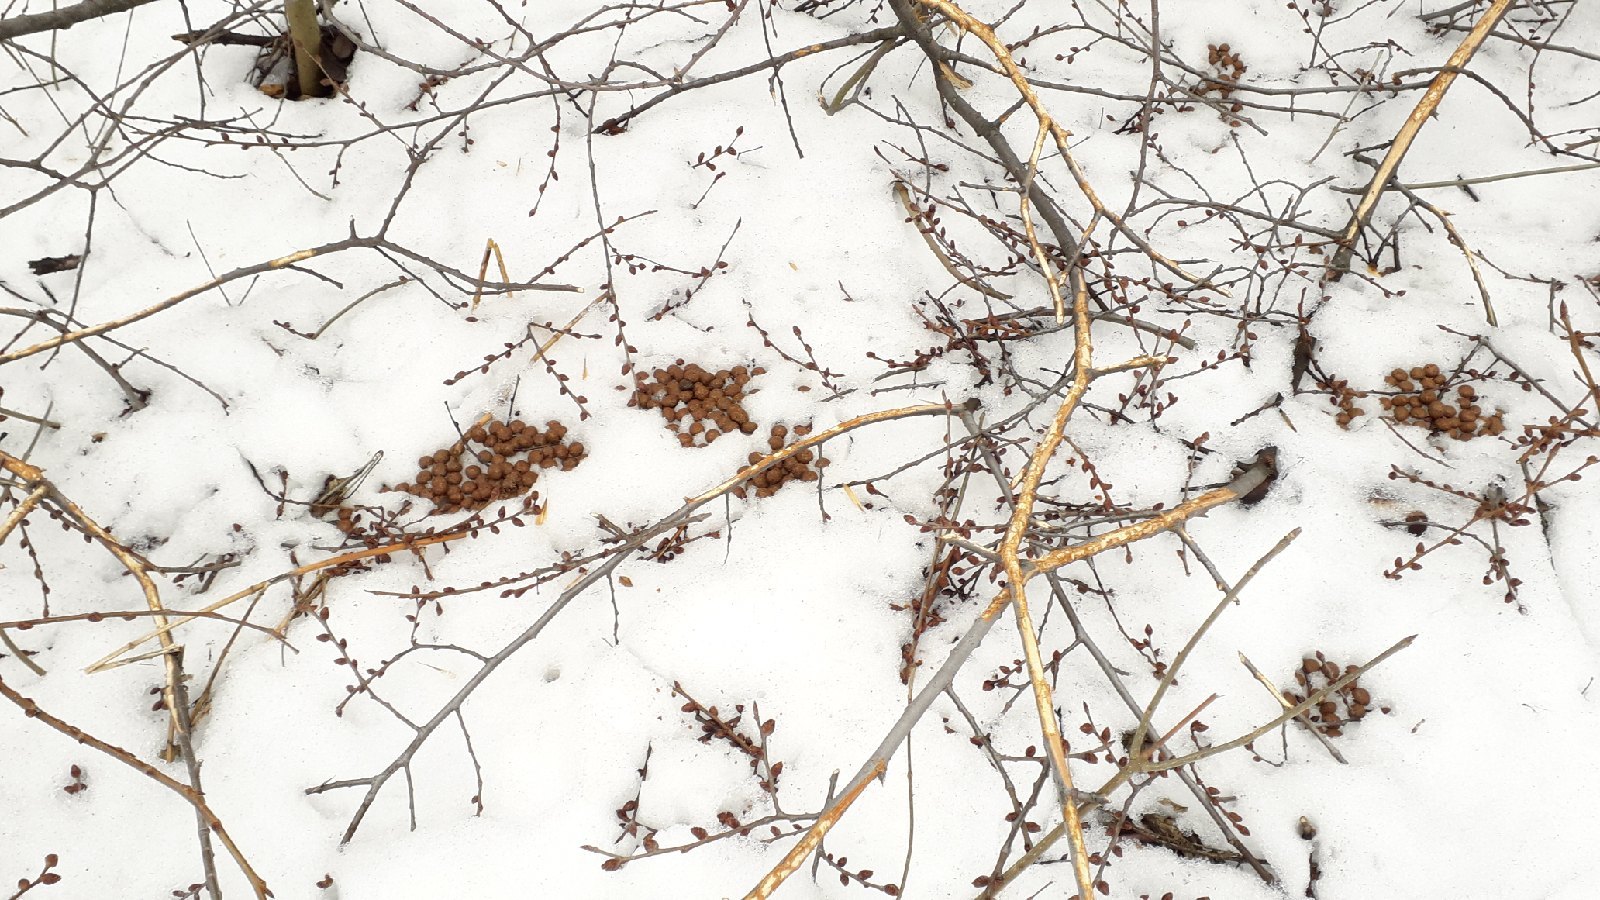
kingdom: Animalia
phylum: Chordata
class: Mammalia
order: Lagomorpha
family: Leporidae
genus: Lepus
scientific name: Lepus europaeus
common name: European hare
